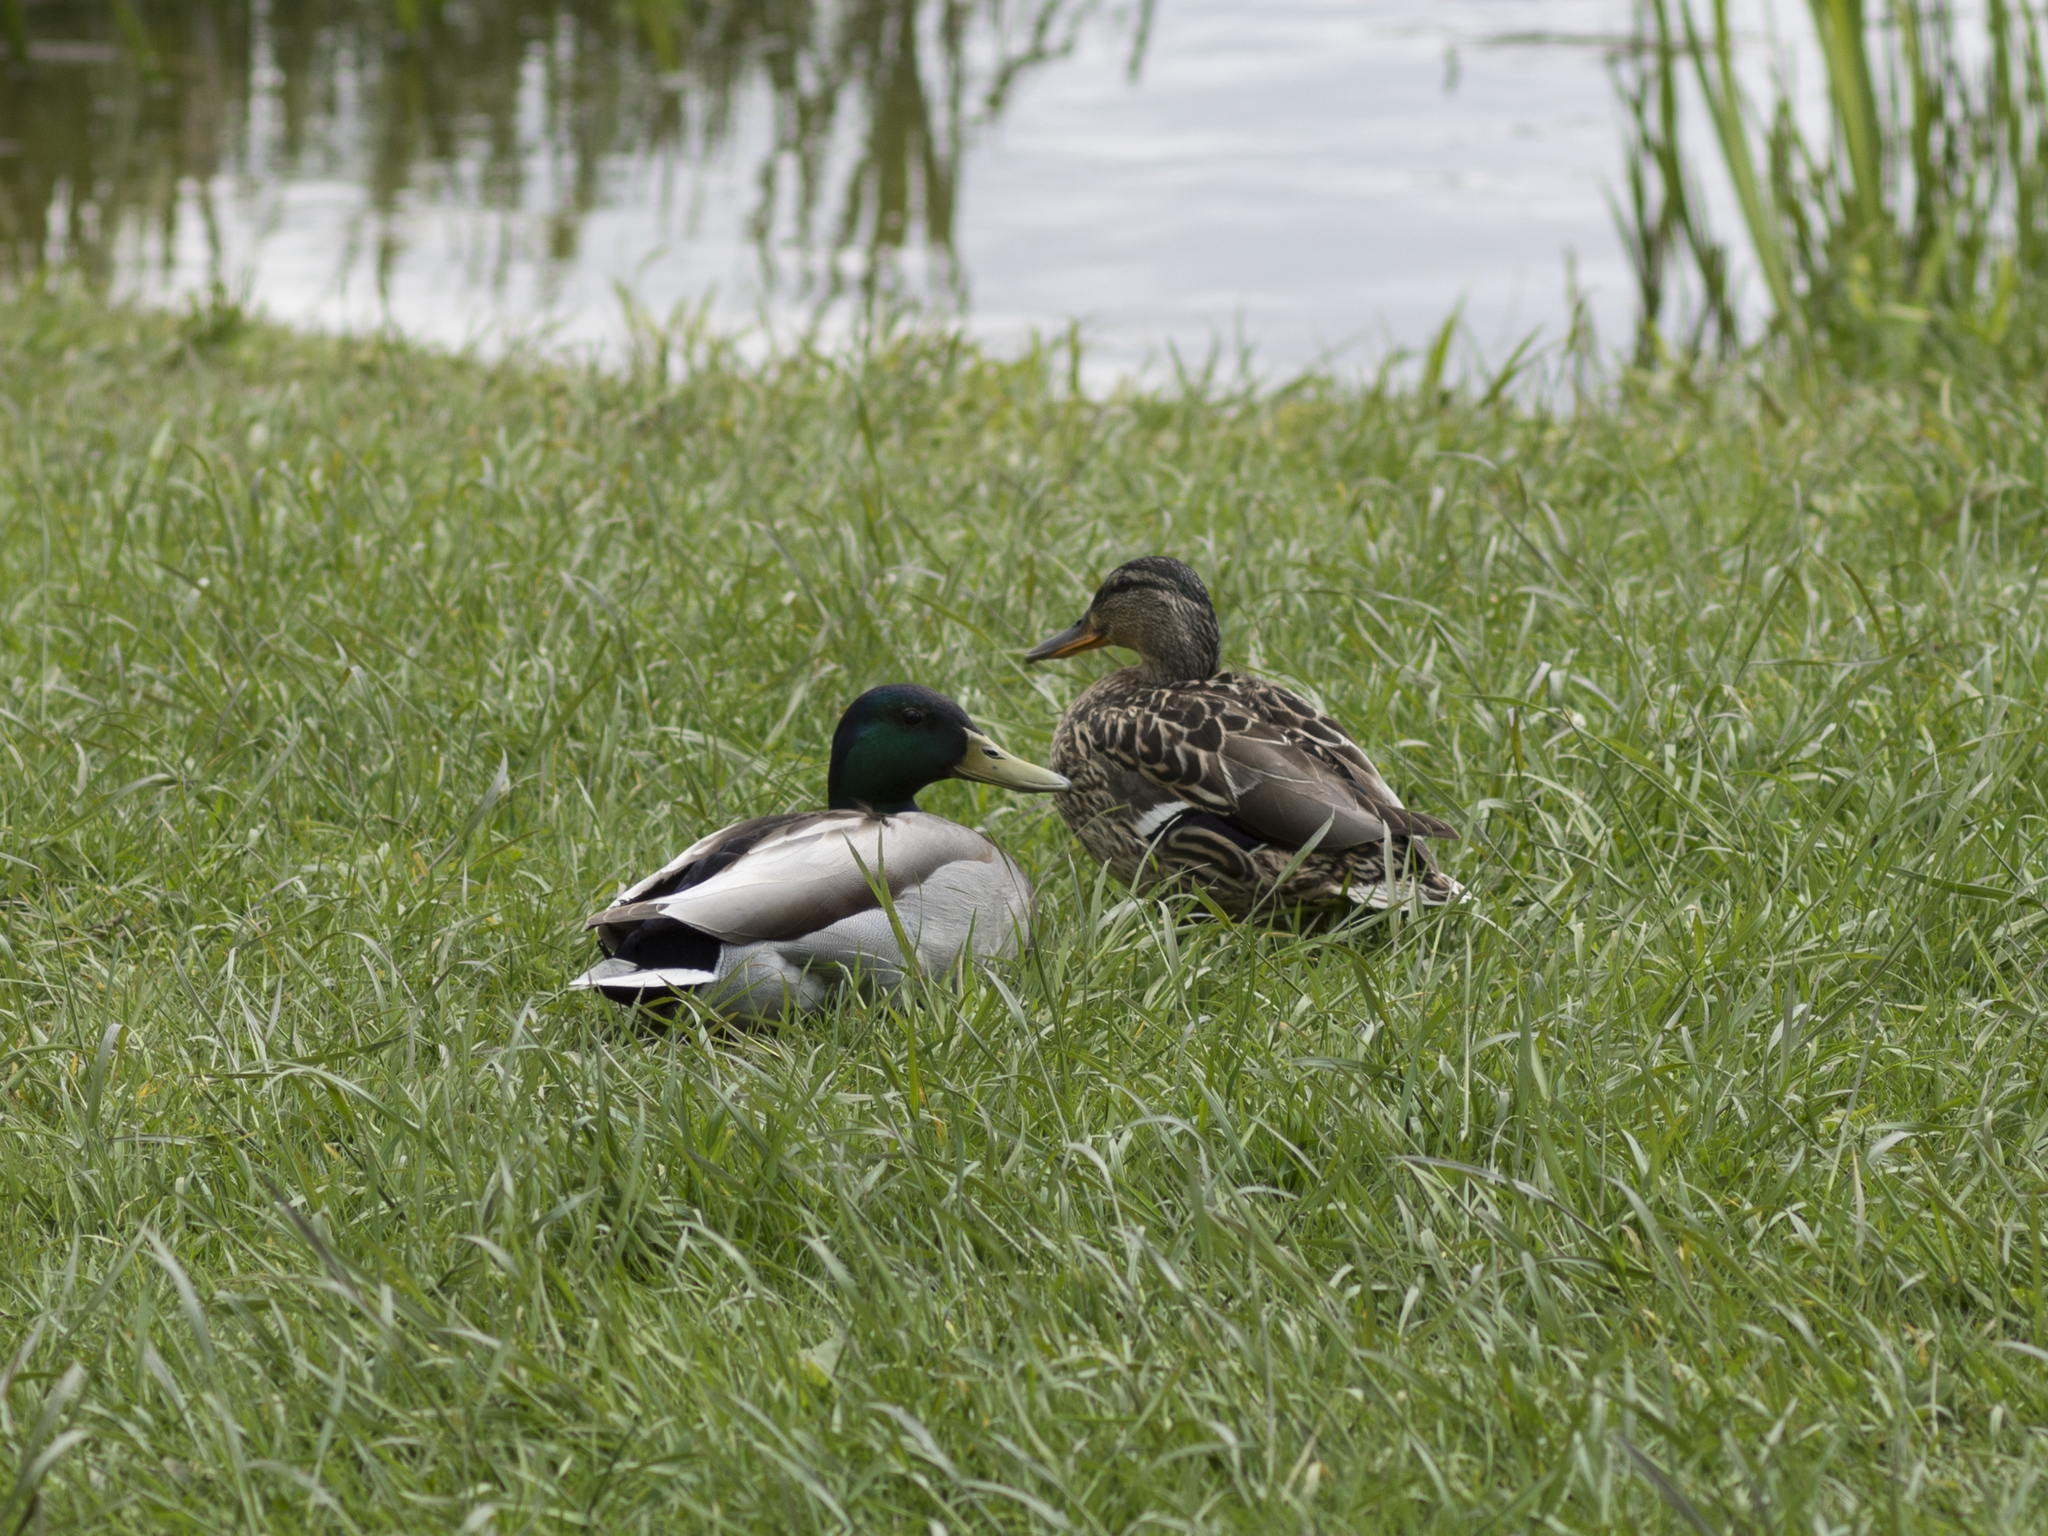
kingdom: Animalia
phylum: Chordata
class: Aves
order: Anseriformes
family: Anatidae
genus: Anas
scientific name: Anas platyrhynchos
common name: Mallard
